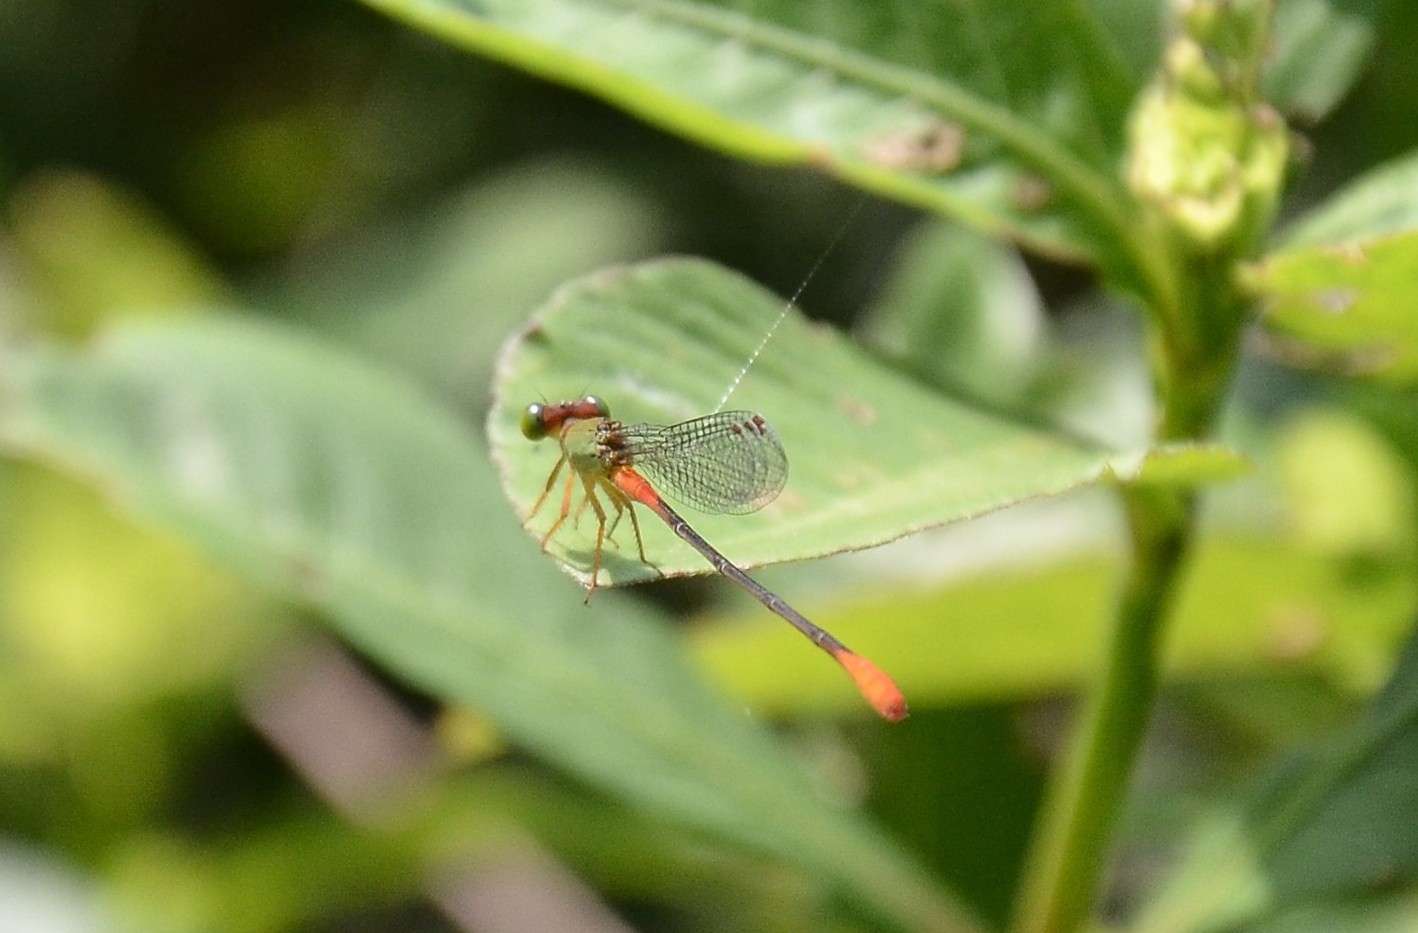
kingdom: Animalia
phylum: Arthropoda
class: Insecta
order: Odonata
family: Coenagrionidae
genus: Ceriagrion
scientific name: Ceriagrion cerinorubellum
